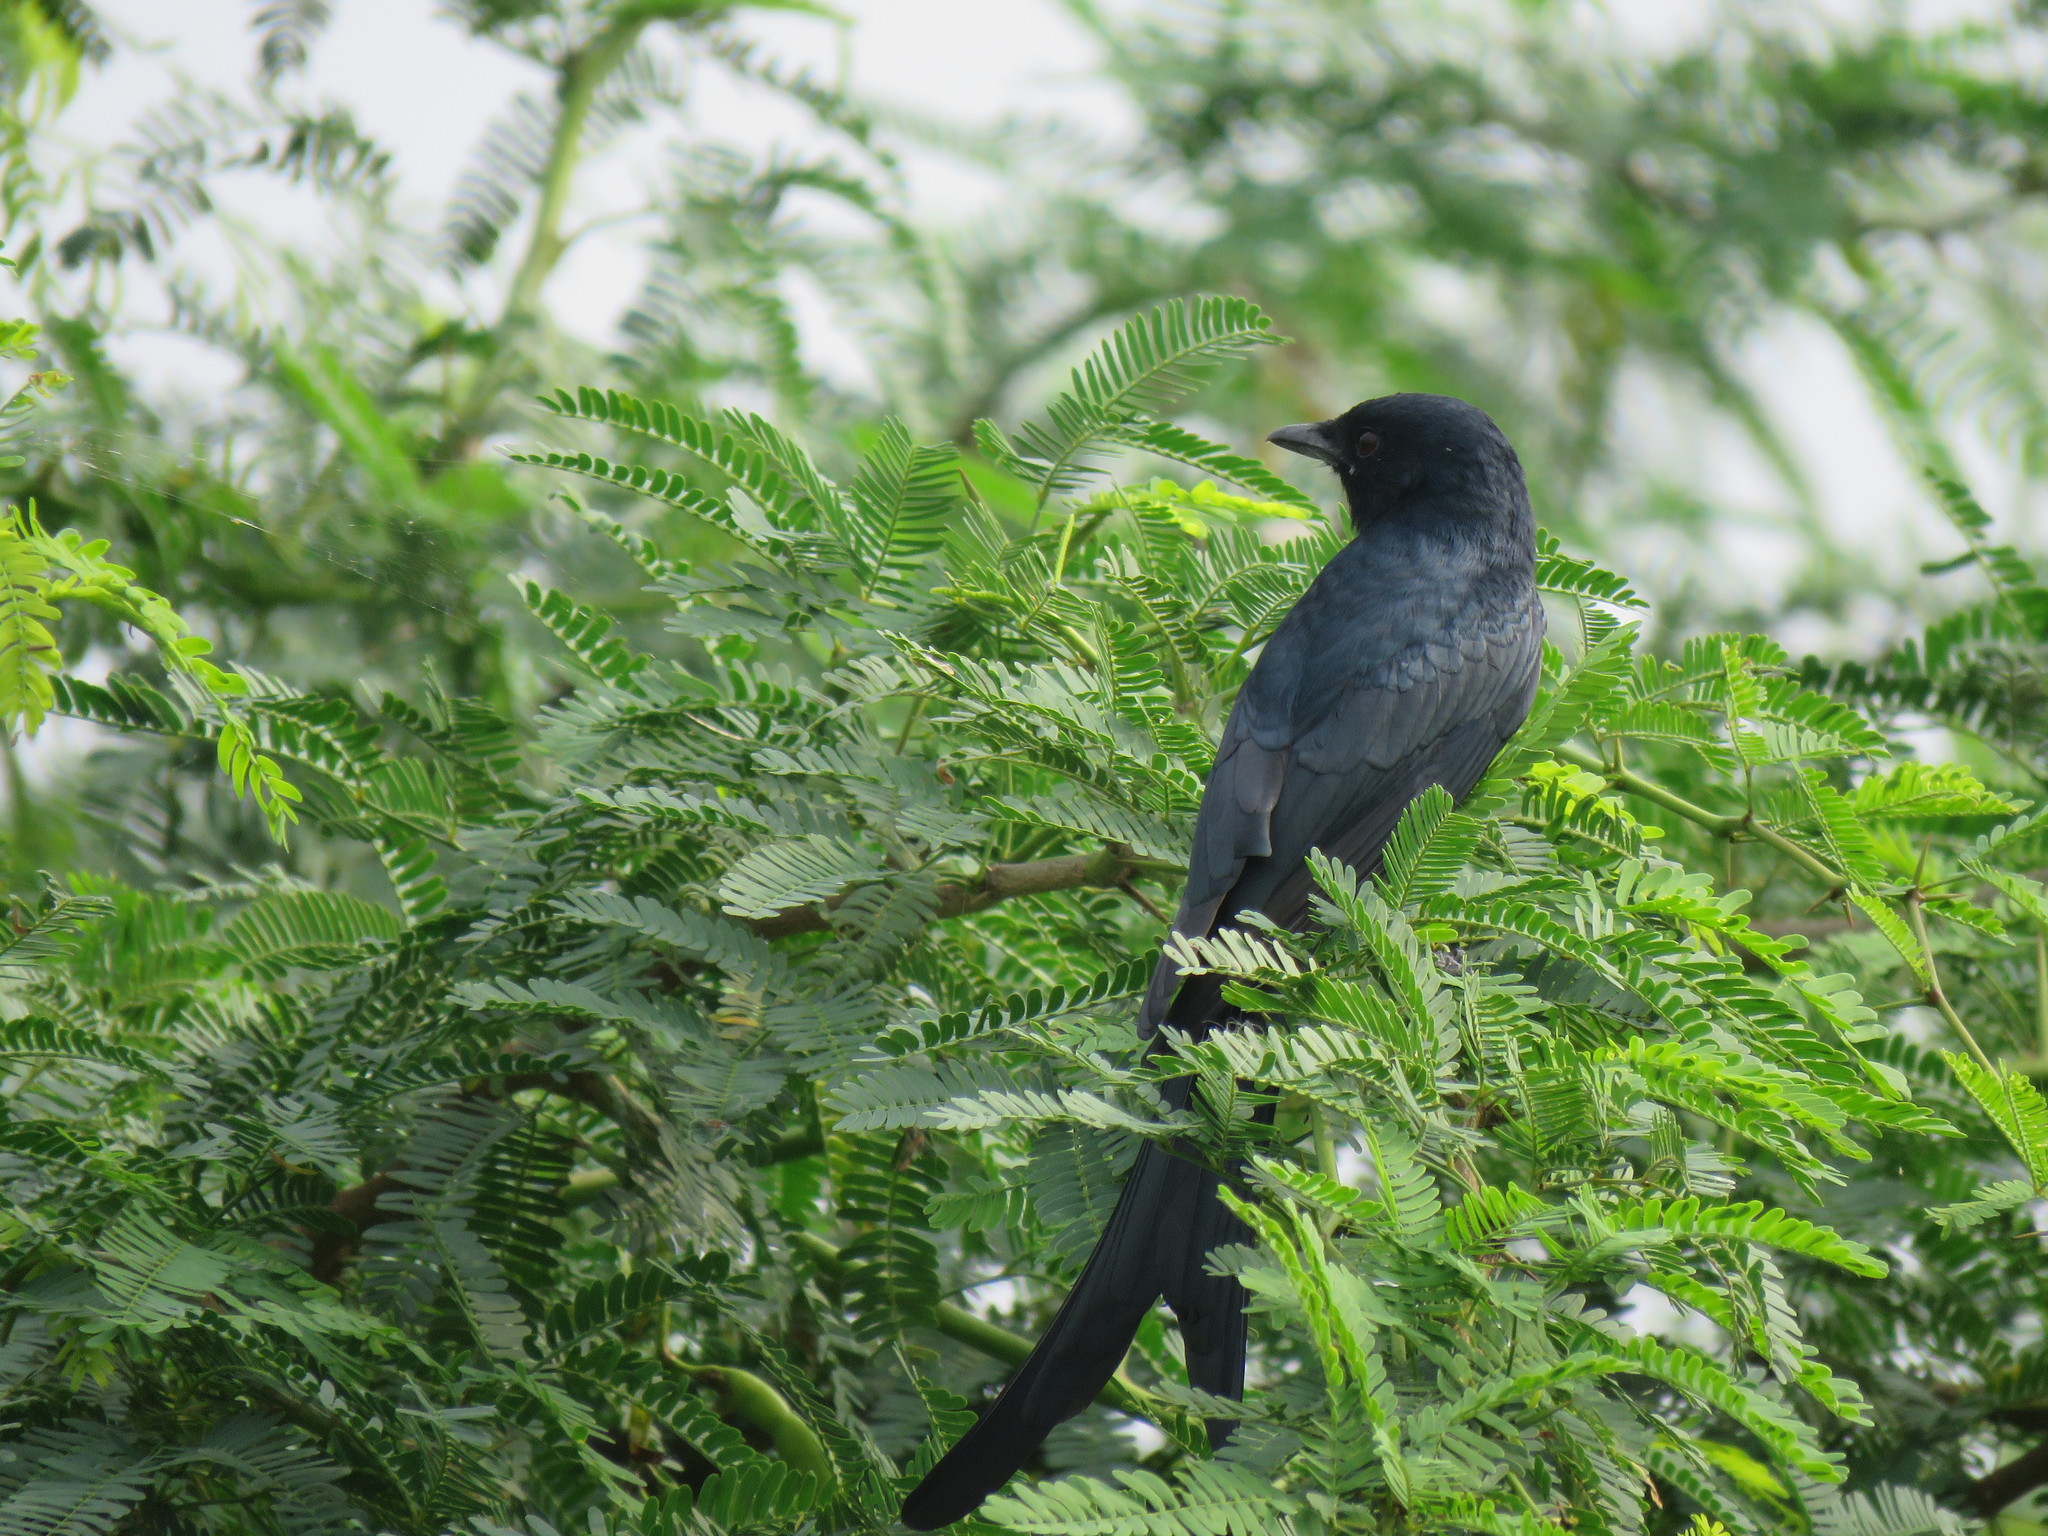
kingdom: Animalia
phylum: Chordata
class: Aves
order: Passeriformes
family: Dicruridae
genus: Dicrurus
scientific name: Dicrurus macrocercus
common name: Black drongo
